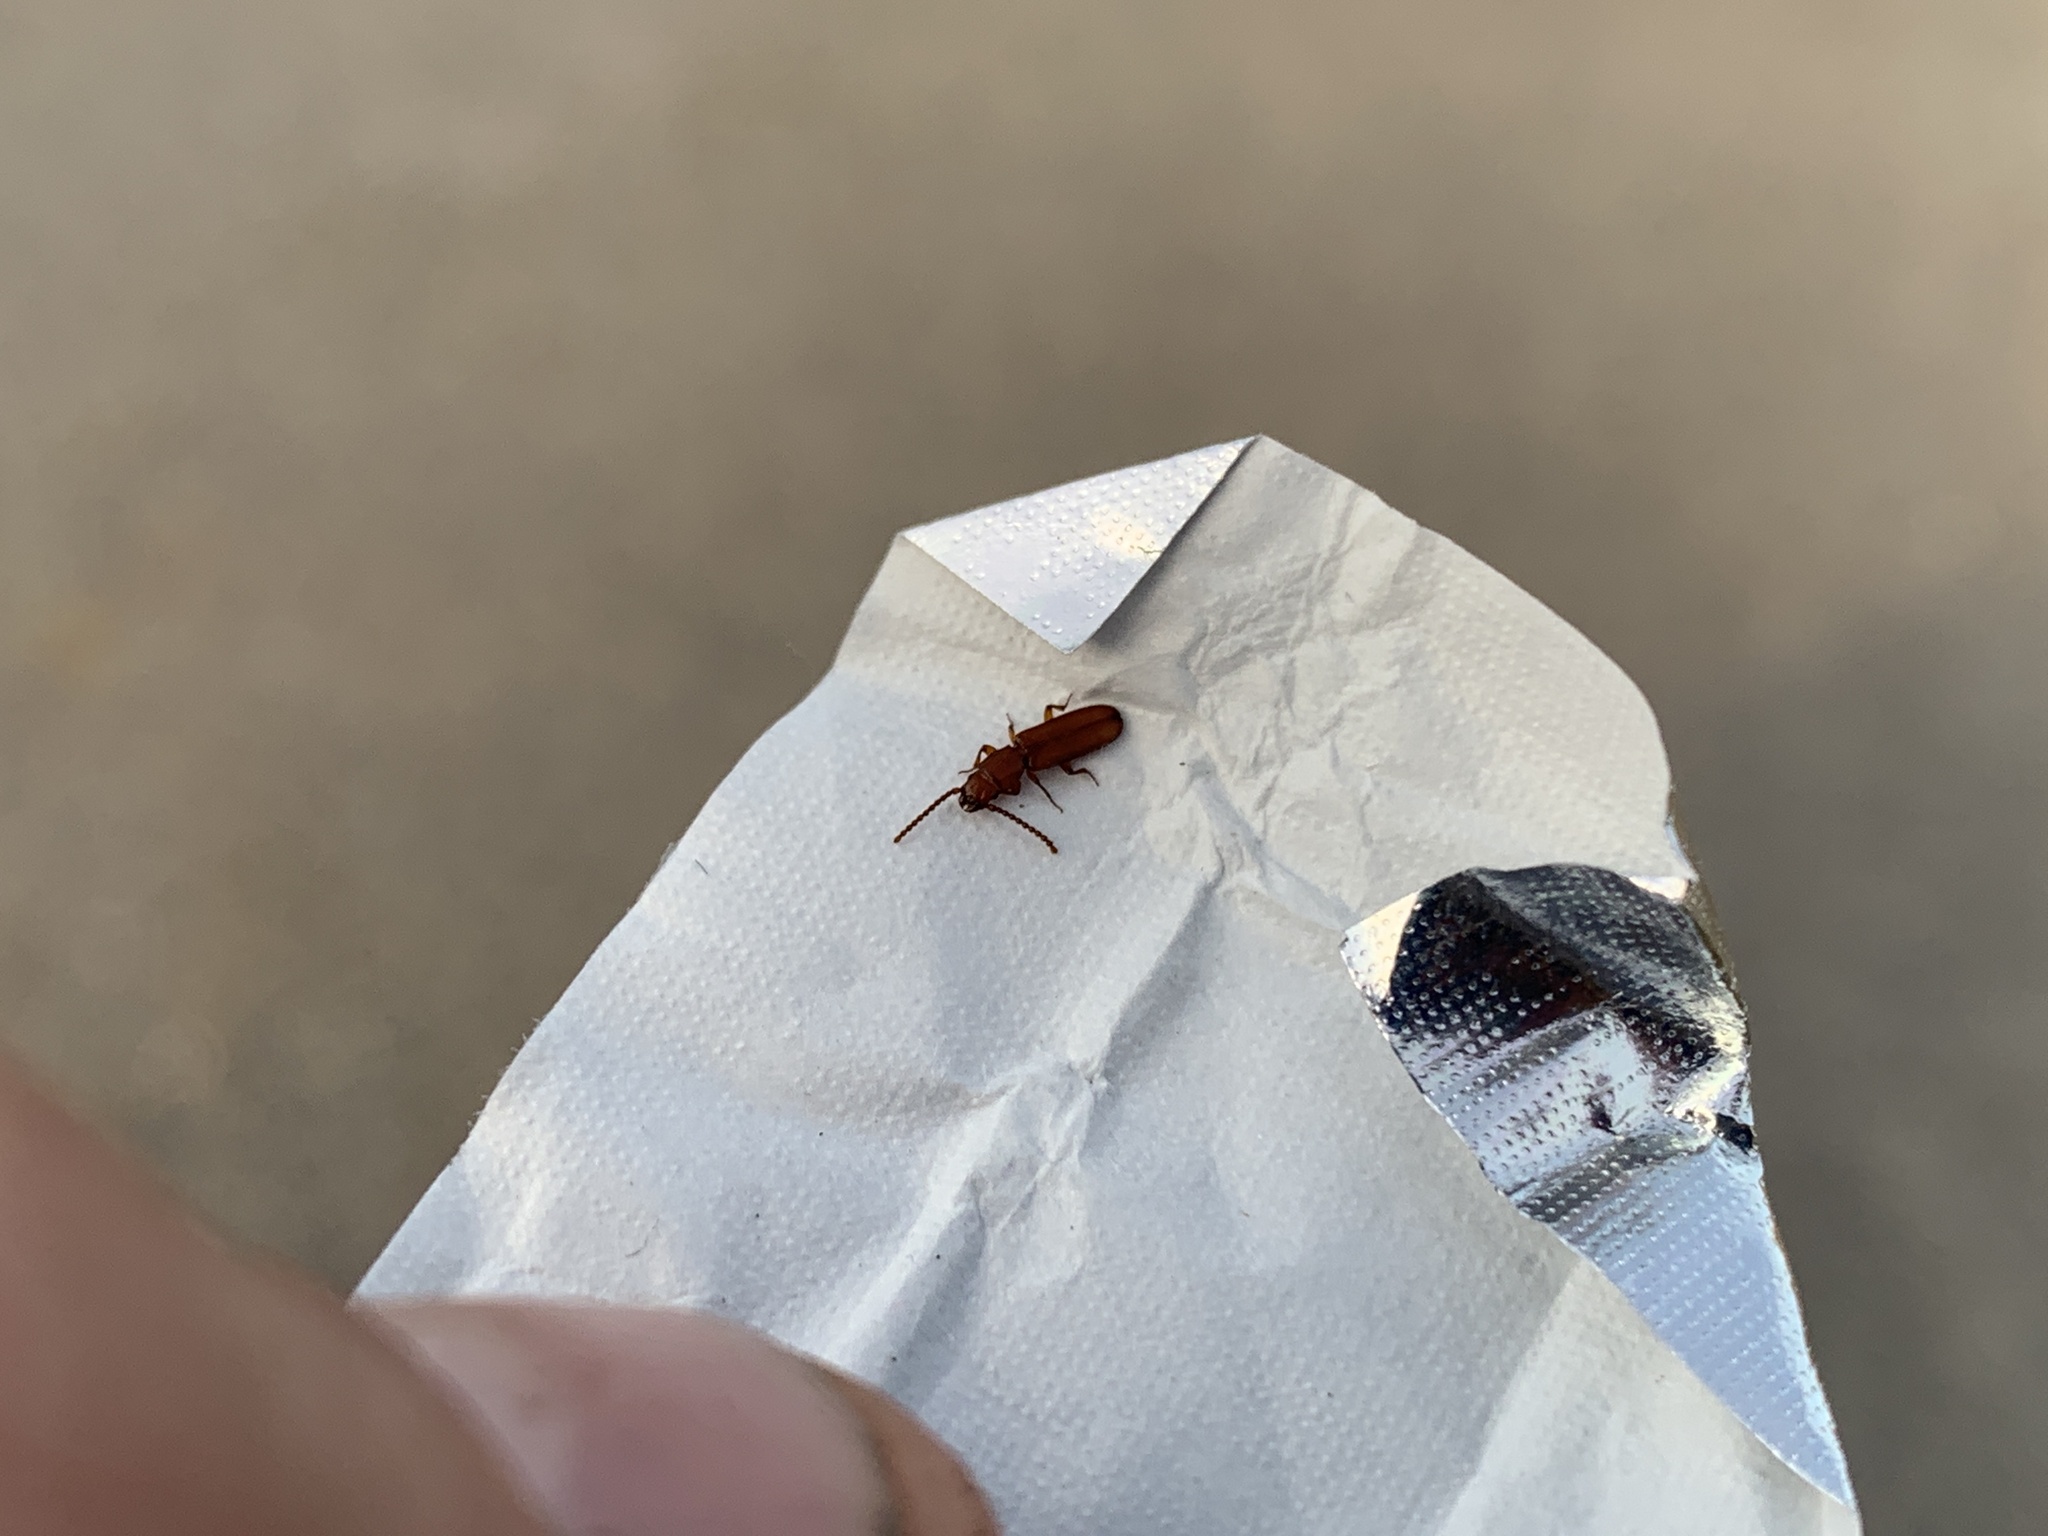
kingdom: Animalia
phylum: Arthropoda
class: Insecta
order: Coleoptera
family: Passandridae
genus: Catogenus
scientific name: Catogenus rufus
